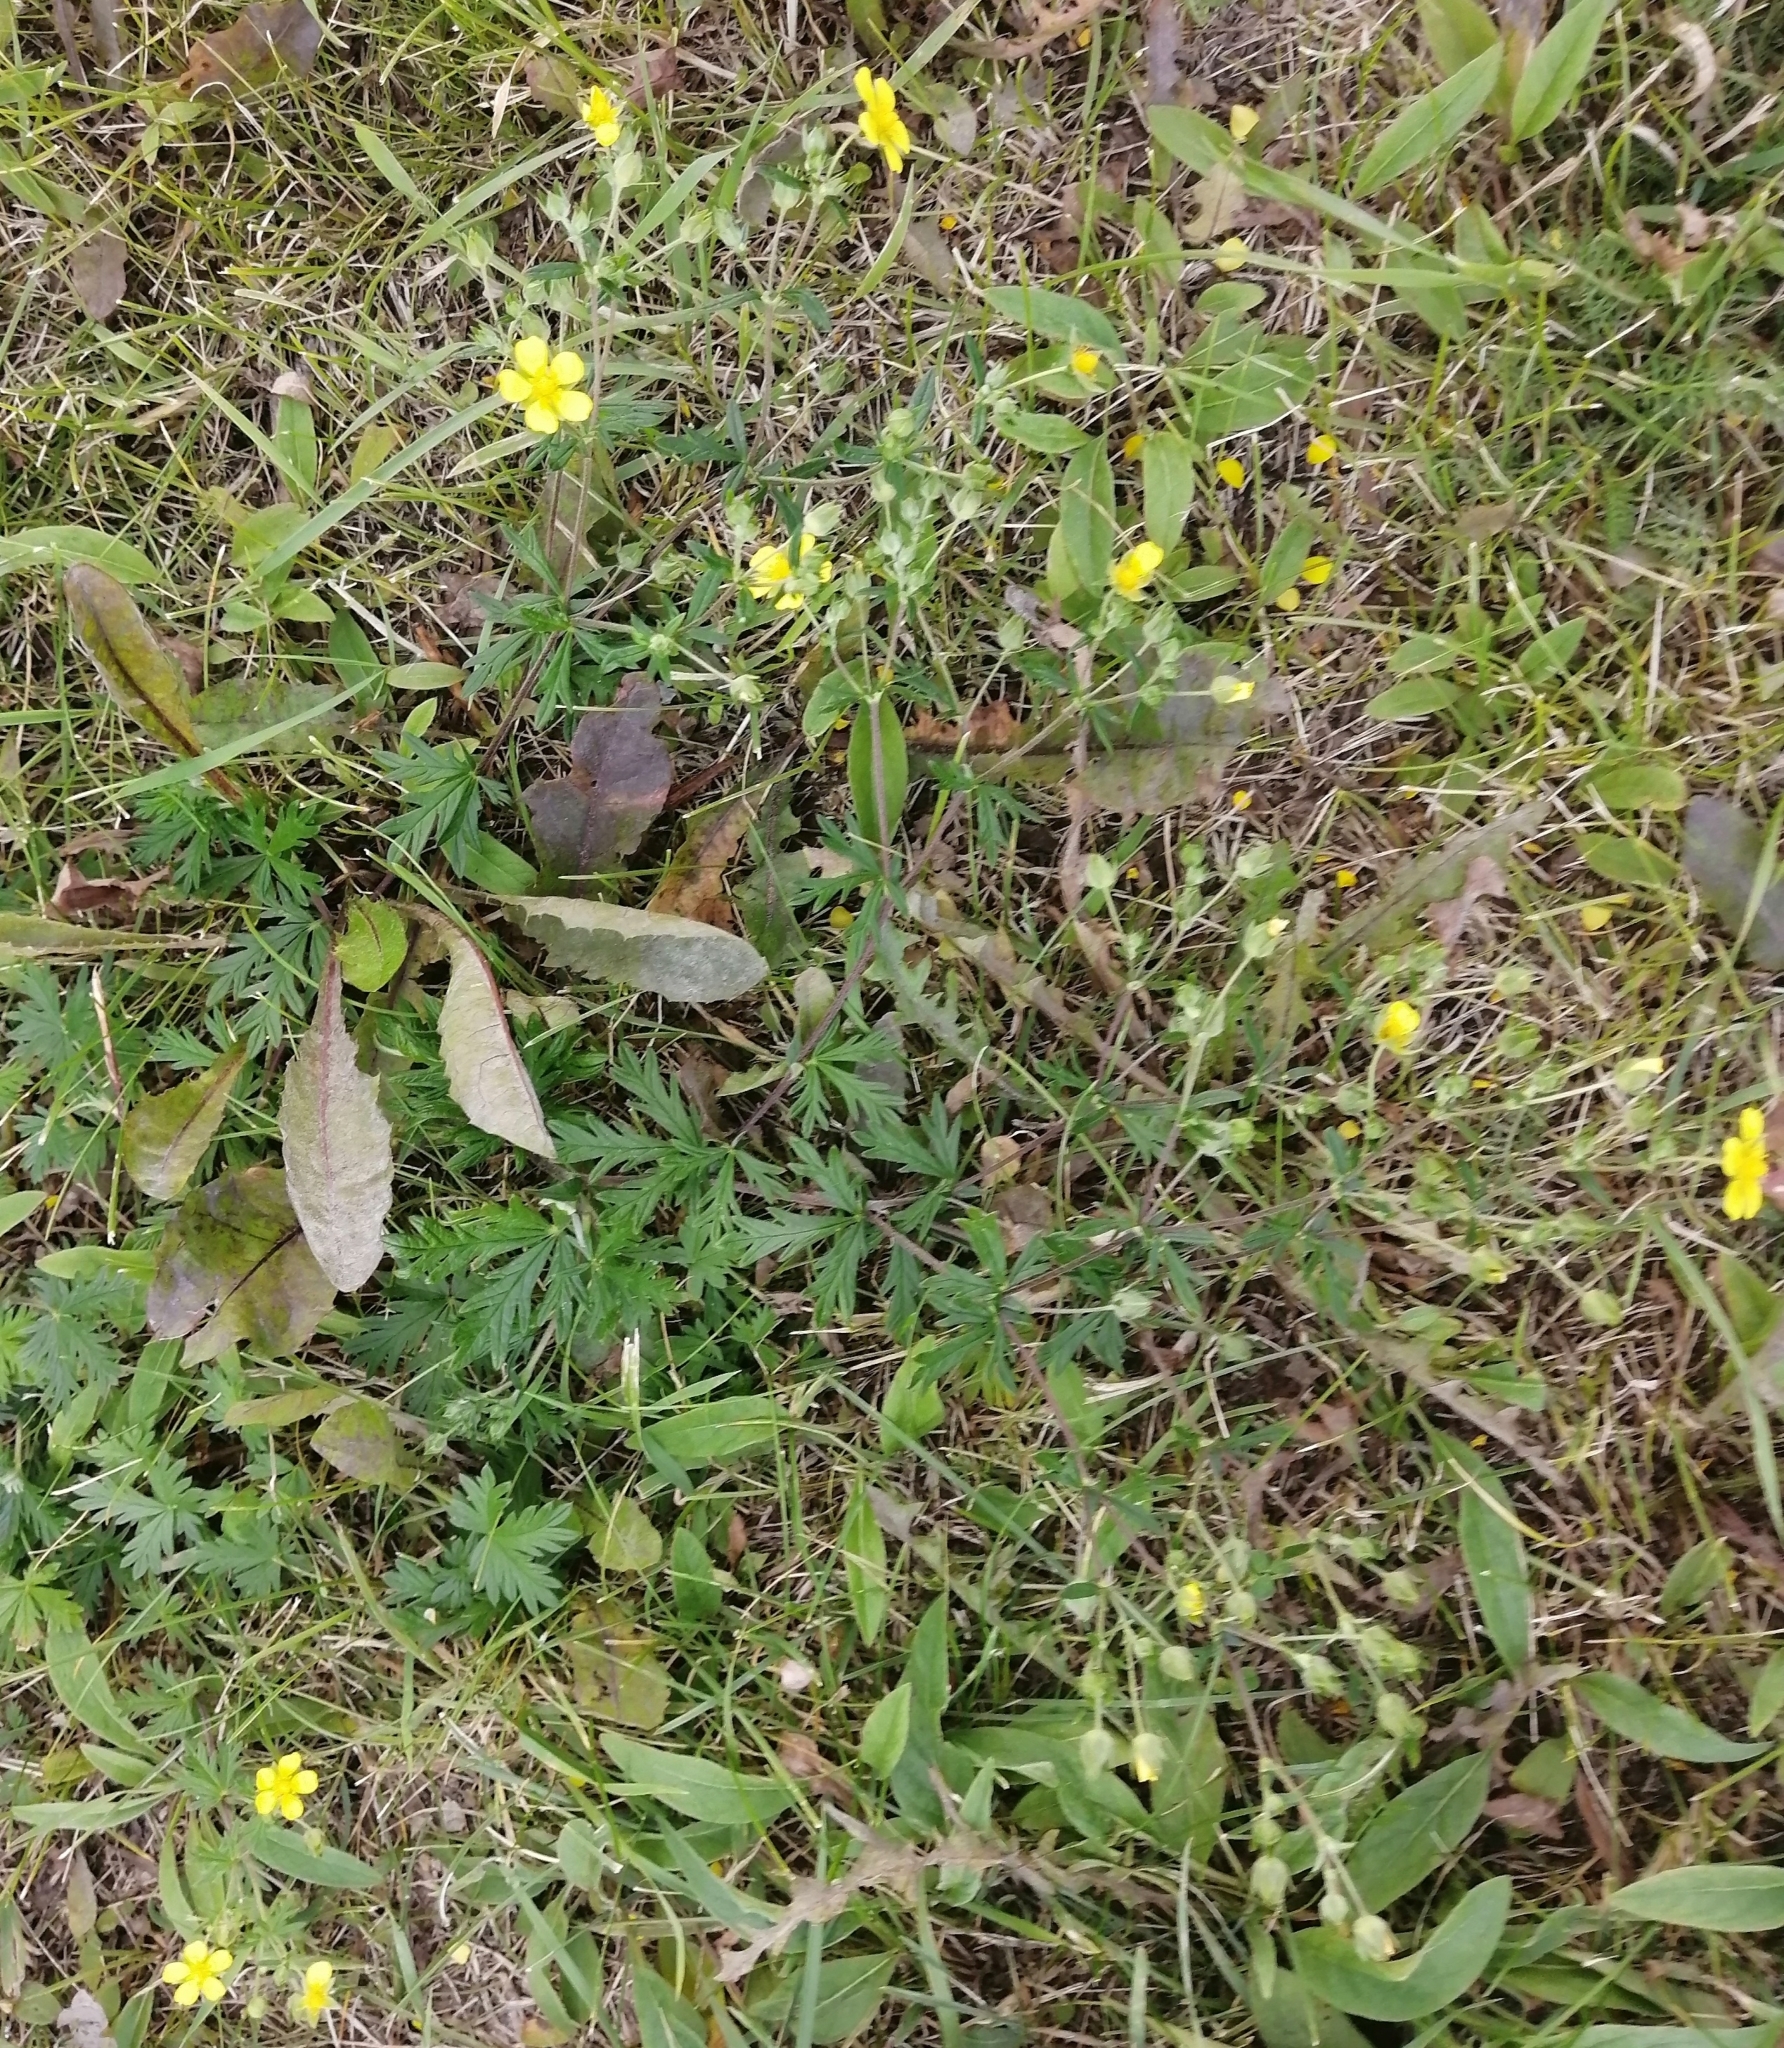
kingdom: Plantae
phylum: Tracheophyta
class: Magnoliopsida
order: Rosales
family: Rosaceae
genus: Potentilla
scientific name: Potentilla argentea
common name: Hoary cinquefoil
